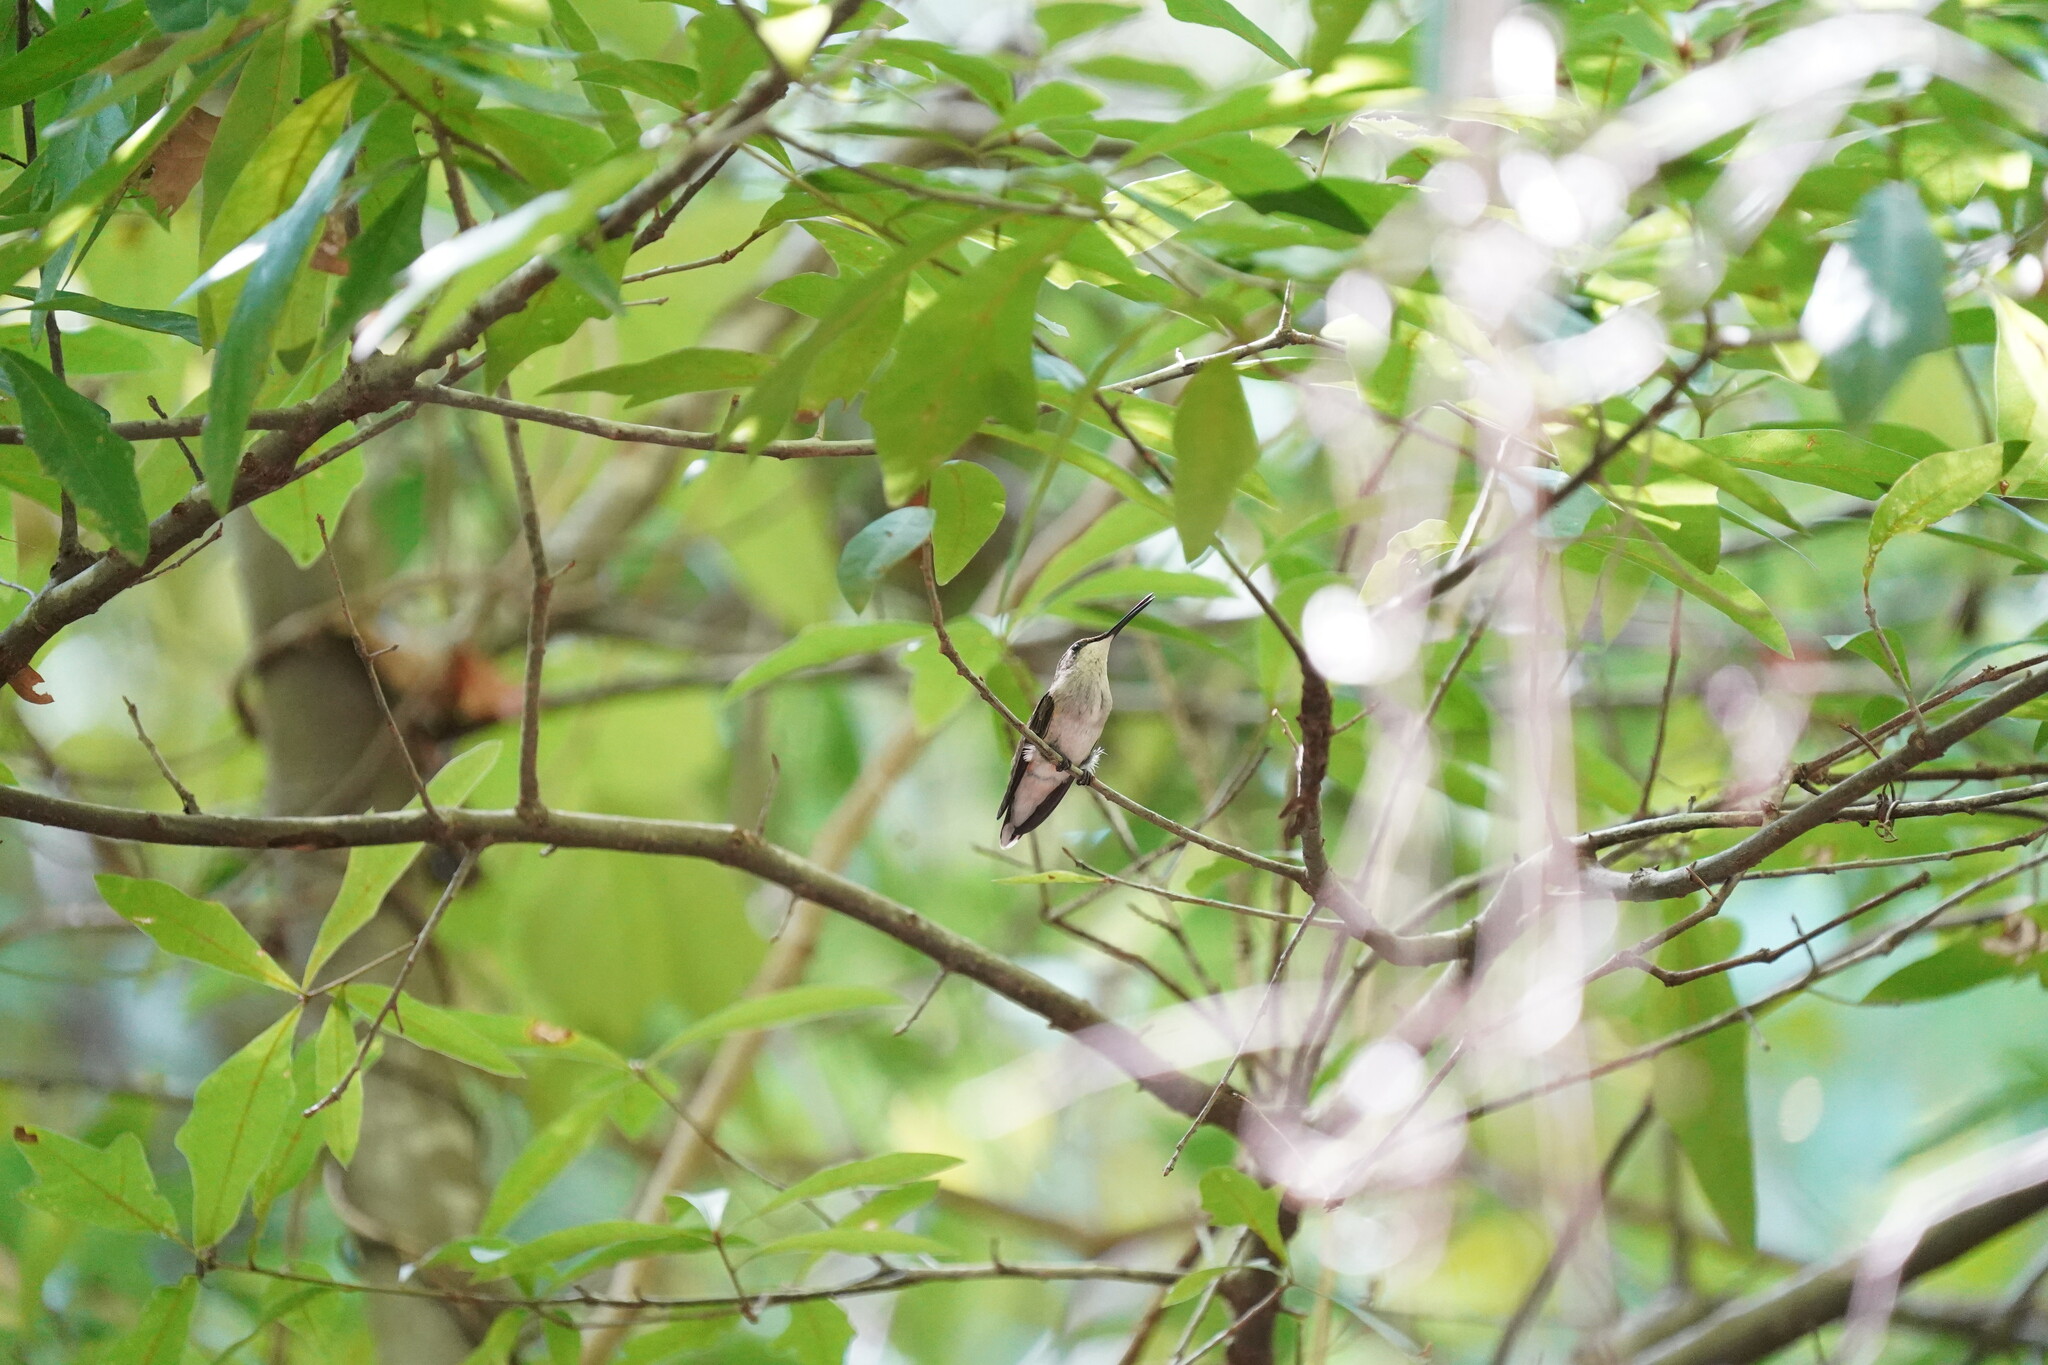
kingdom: Animalia
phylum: Chordata
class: Aves
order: Apodiformes
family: Trochilidae
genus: Archilochus
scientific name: Archilochus colubris
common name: Ruby-throated hummingbird
